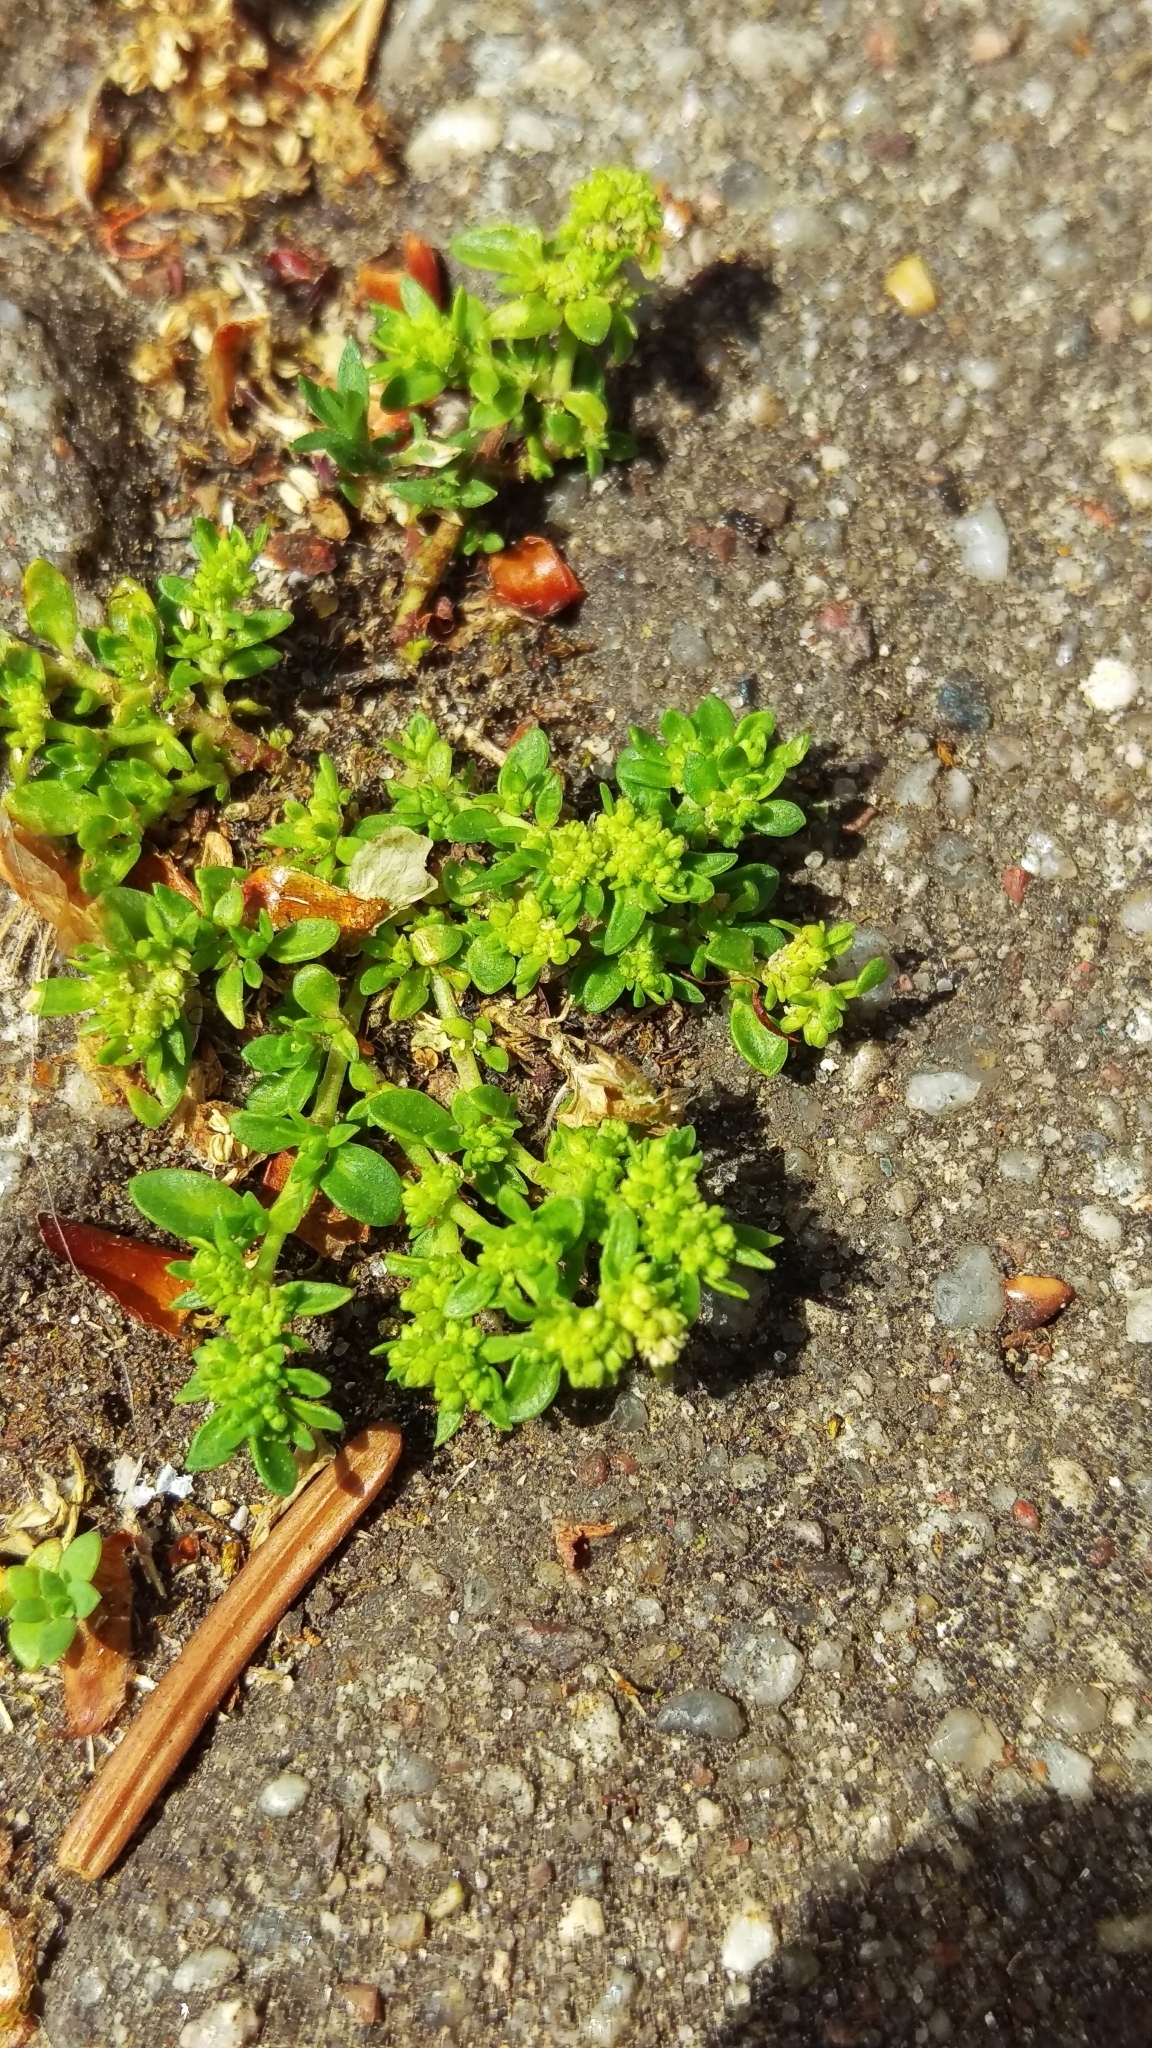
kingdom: Plantae
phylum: Tracheophyta
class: Magnoliopsida
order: Caryophyllales
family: Caryophyllaceae
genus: Herniaria
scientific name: Herniaria glabra
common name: Smooth rupturewort
